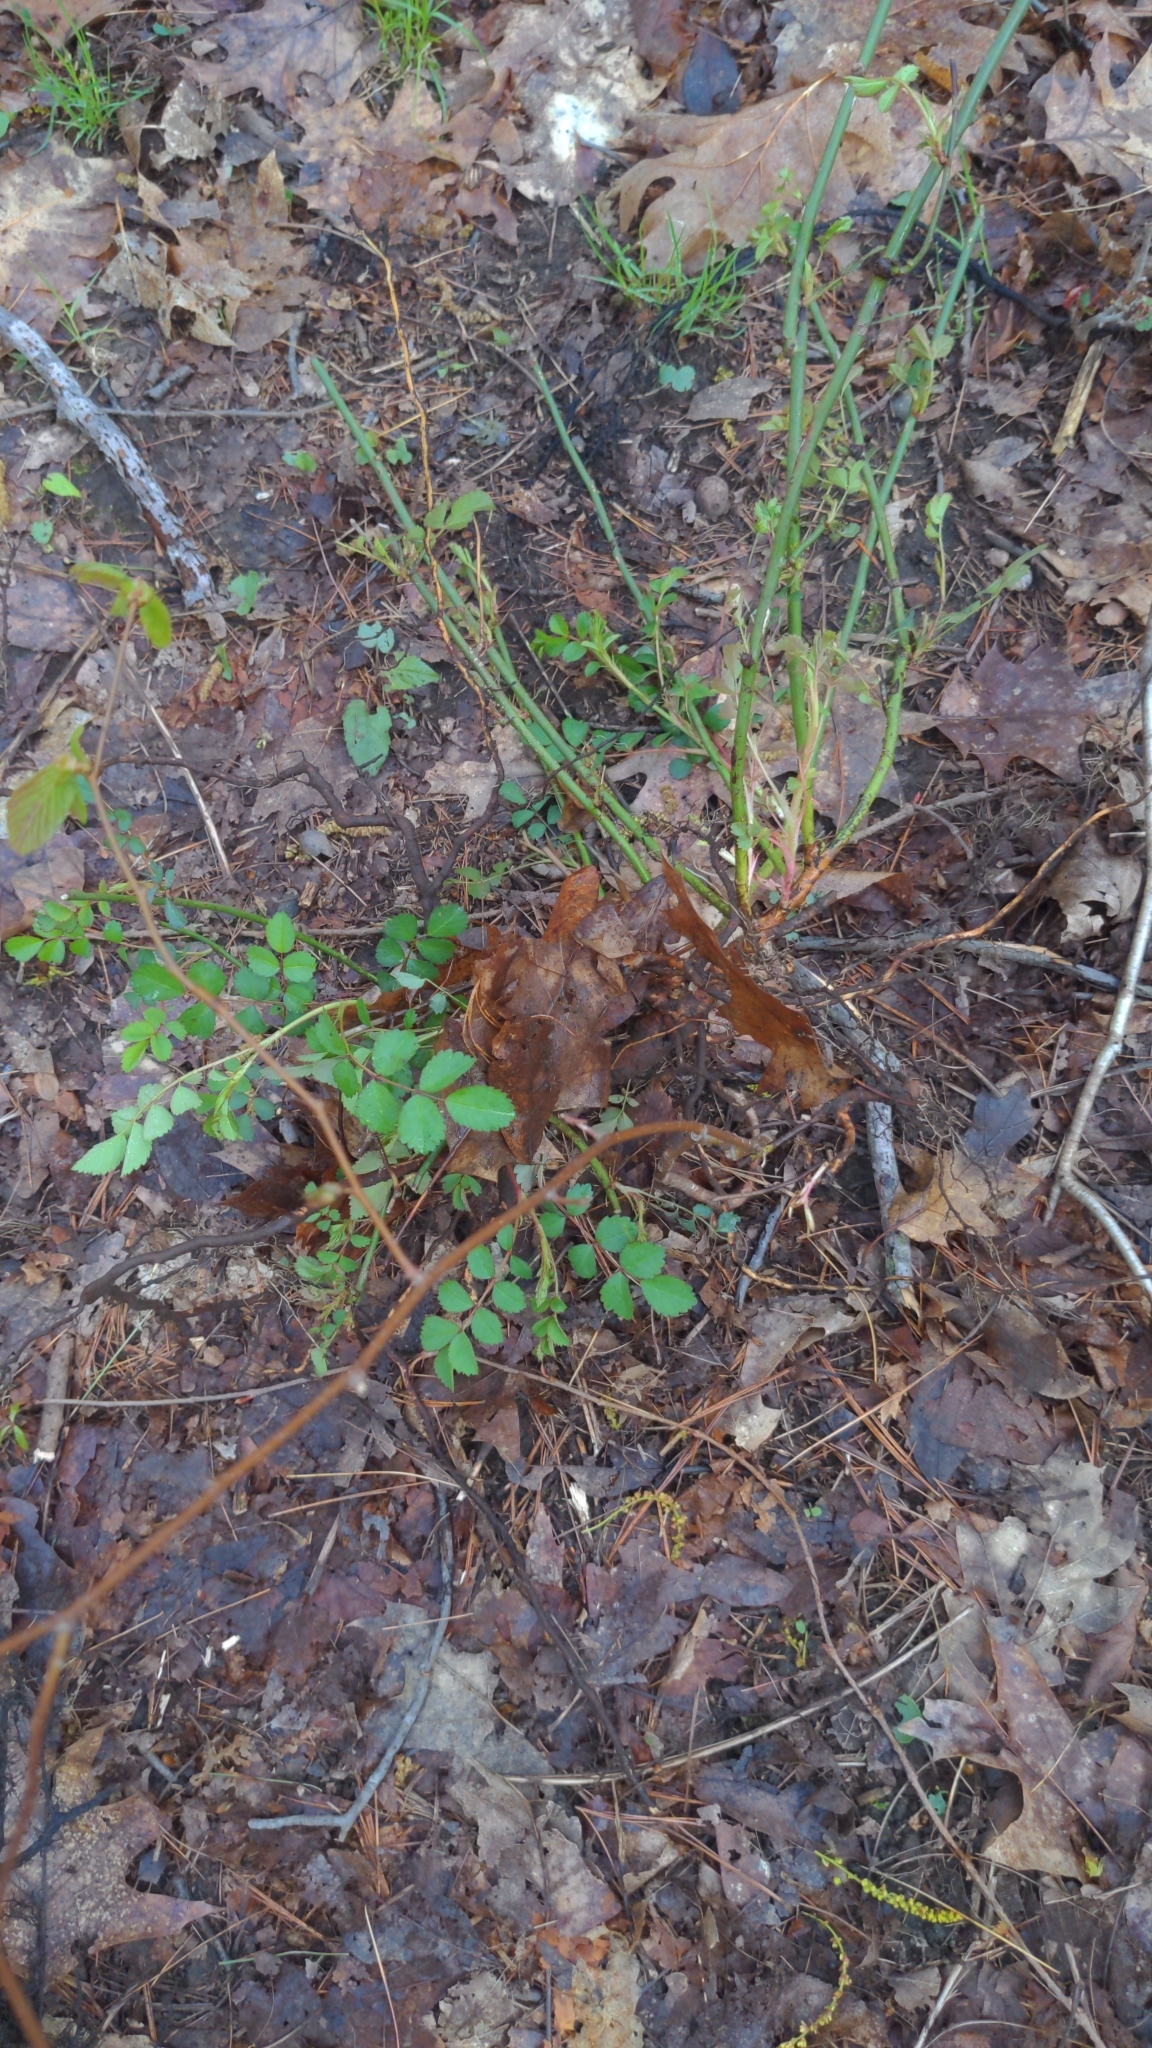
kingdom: Plantae
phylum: Tracheophyta
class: Magnoliopsida
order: Rosales
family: Rosaceae
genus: Rosa
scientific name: Rosa multiflora
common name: Multiflora rose
